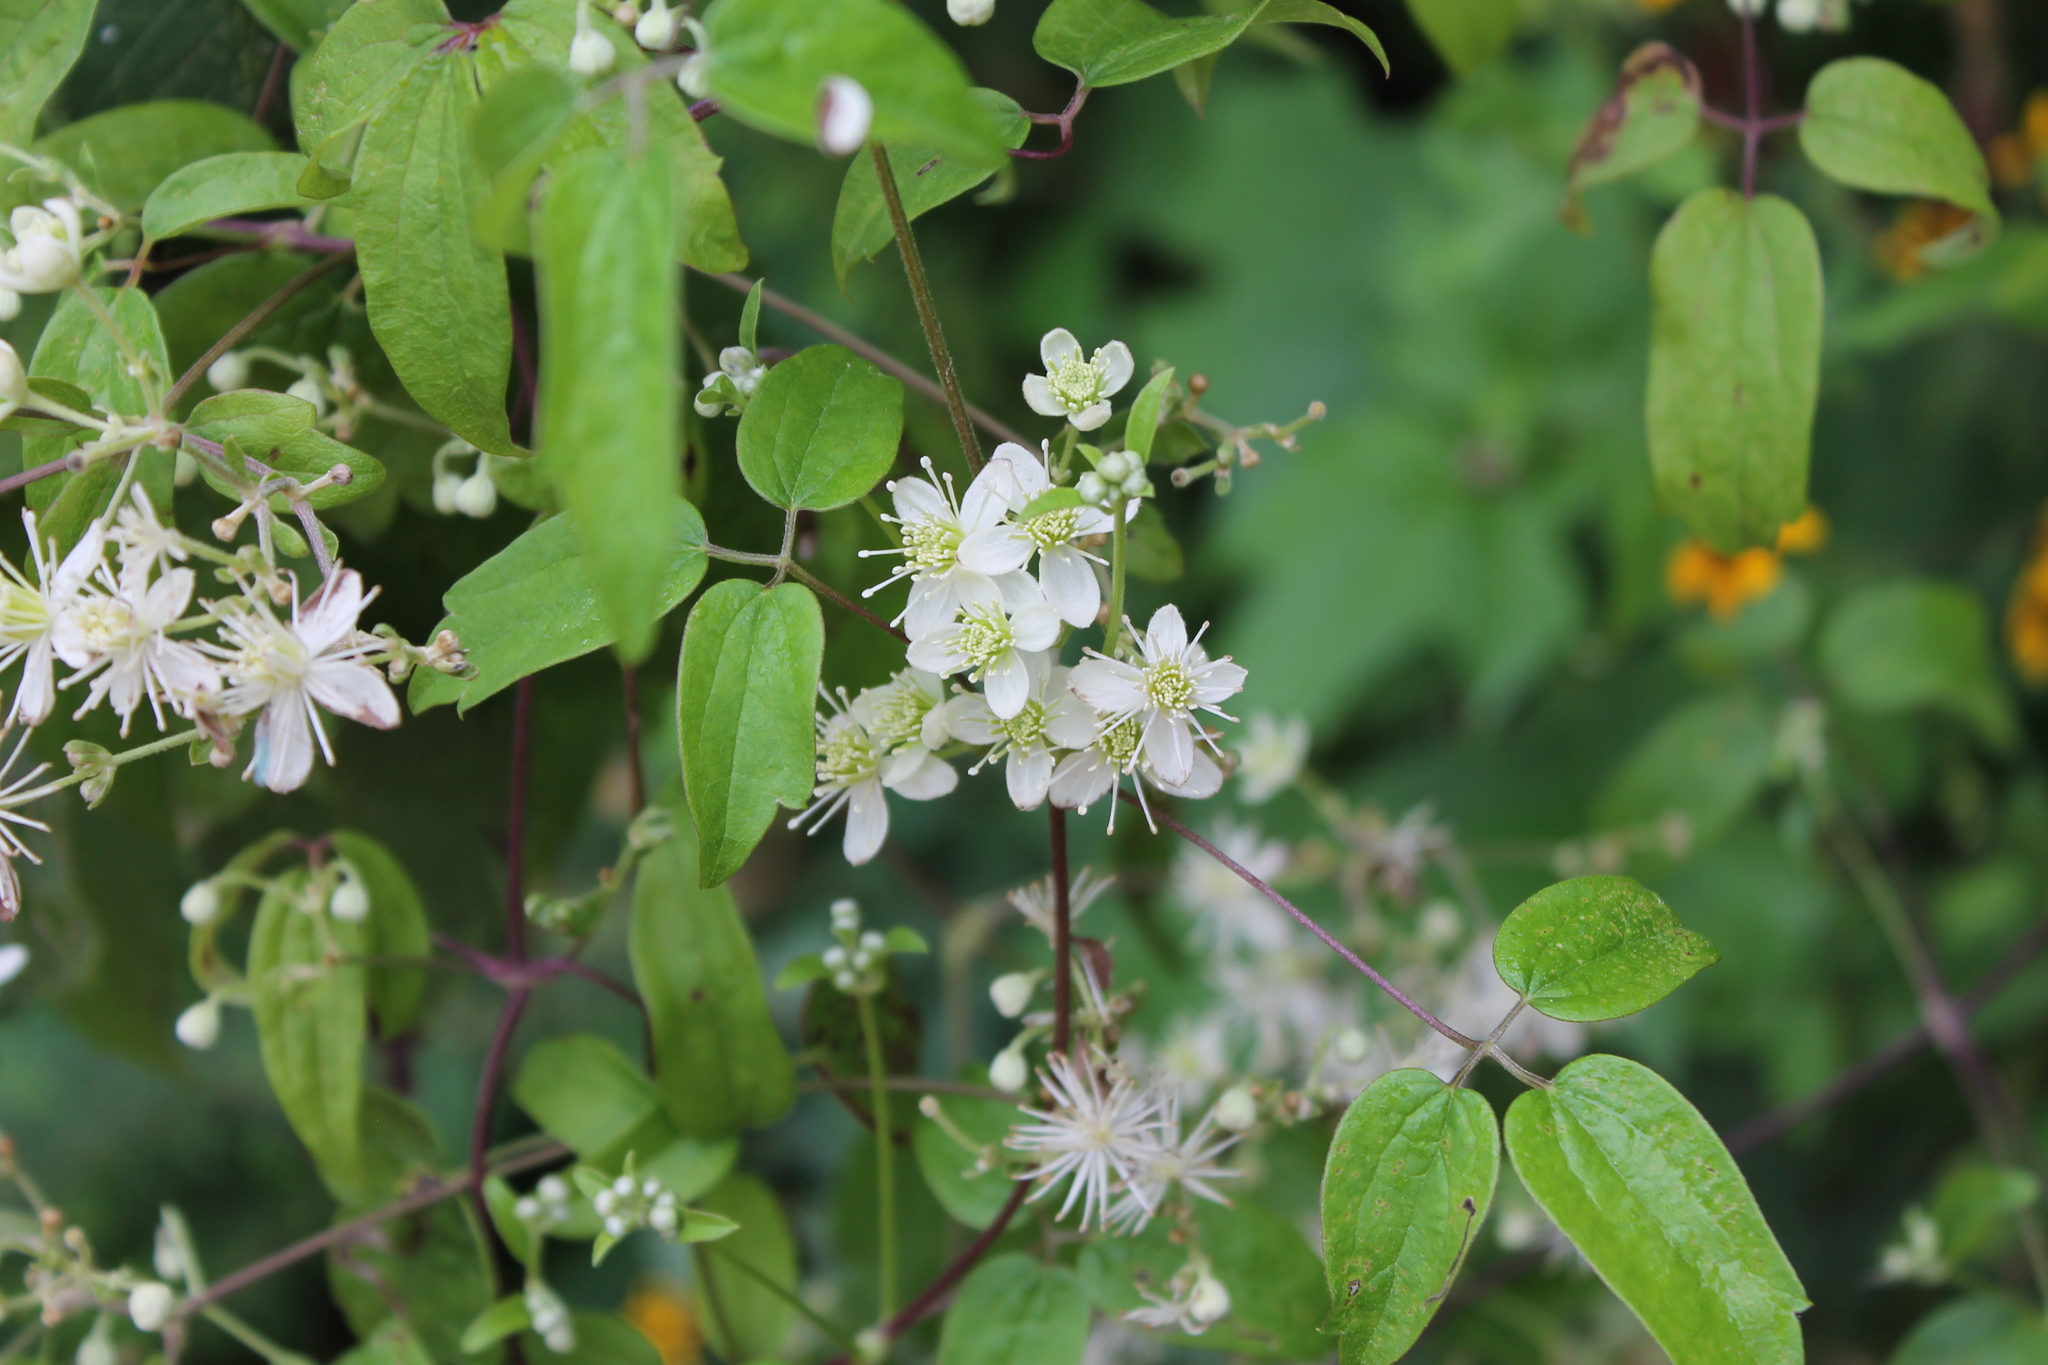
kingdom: Plantae
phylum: Tracheophyta
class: Magnoliopsida
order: Ranunculales
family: Ranunculaceae
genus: Clematis
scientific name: Clematis virginiana
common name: Virgin's-bower
